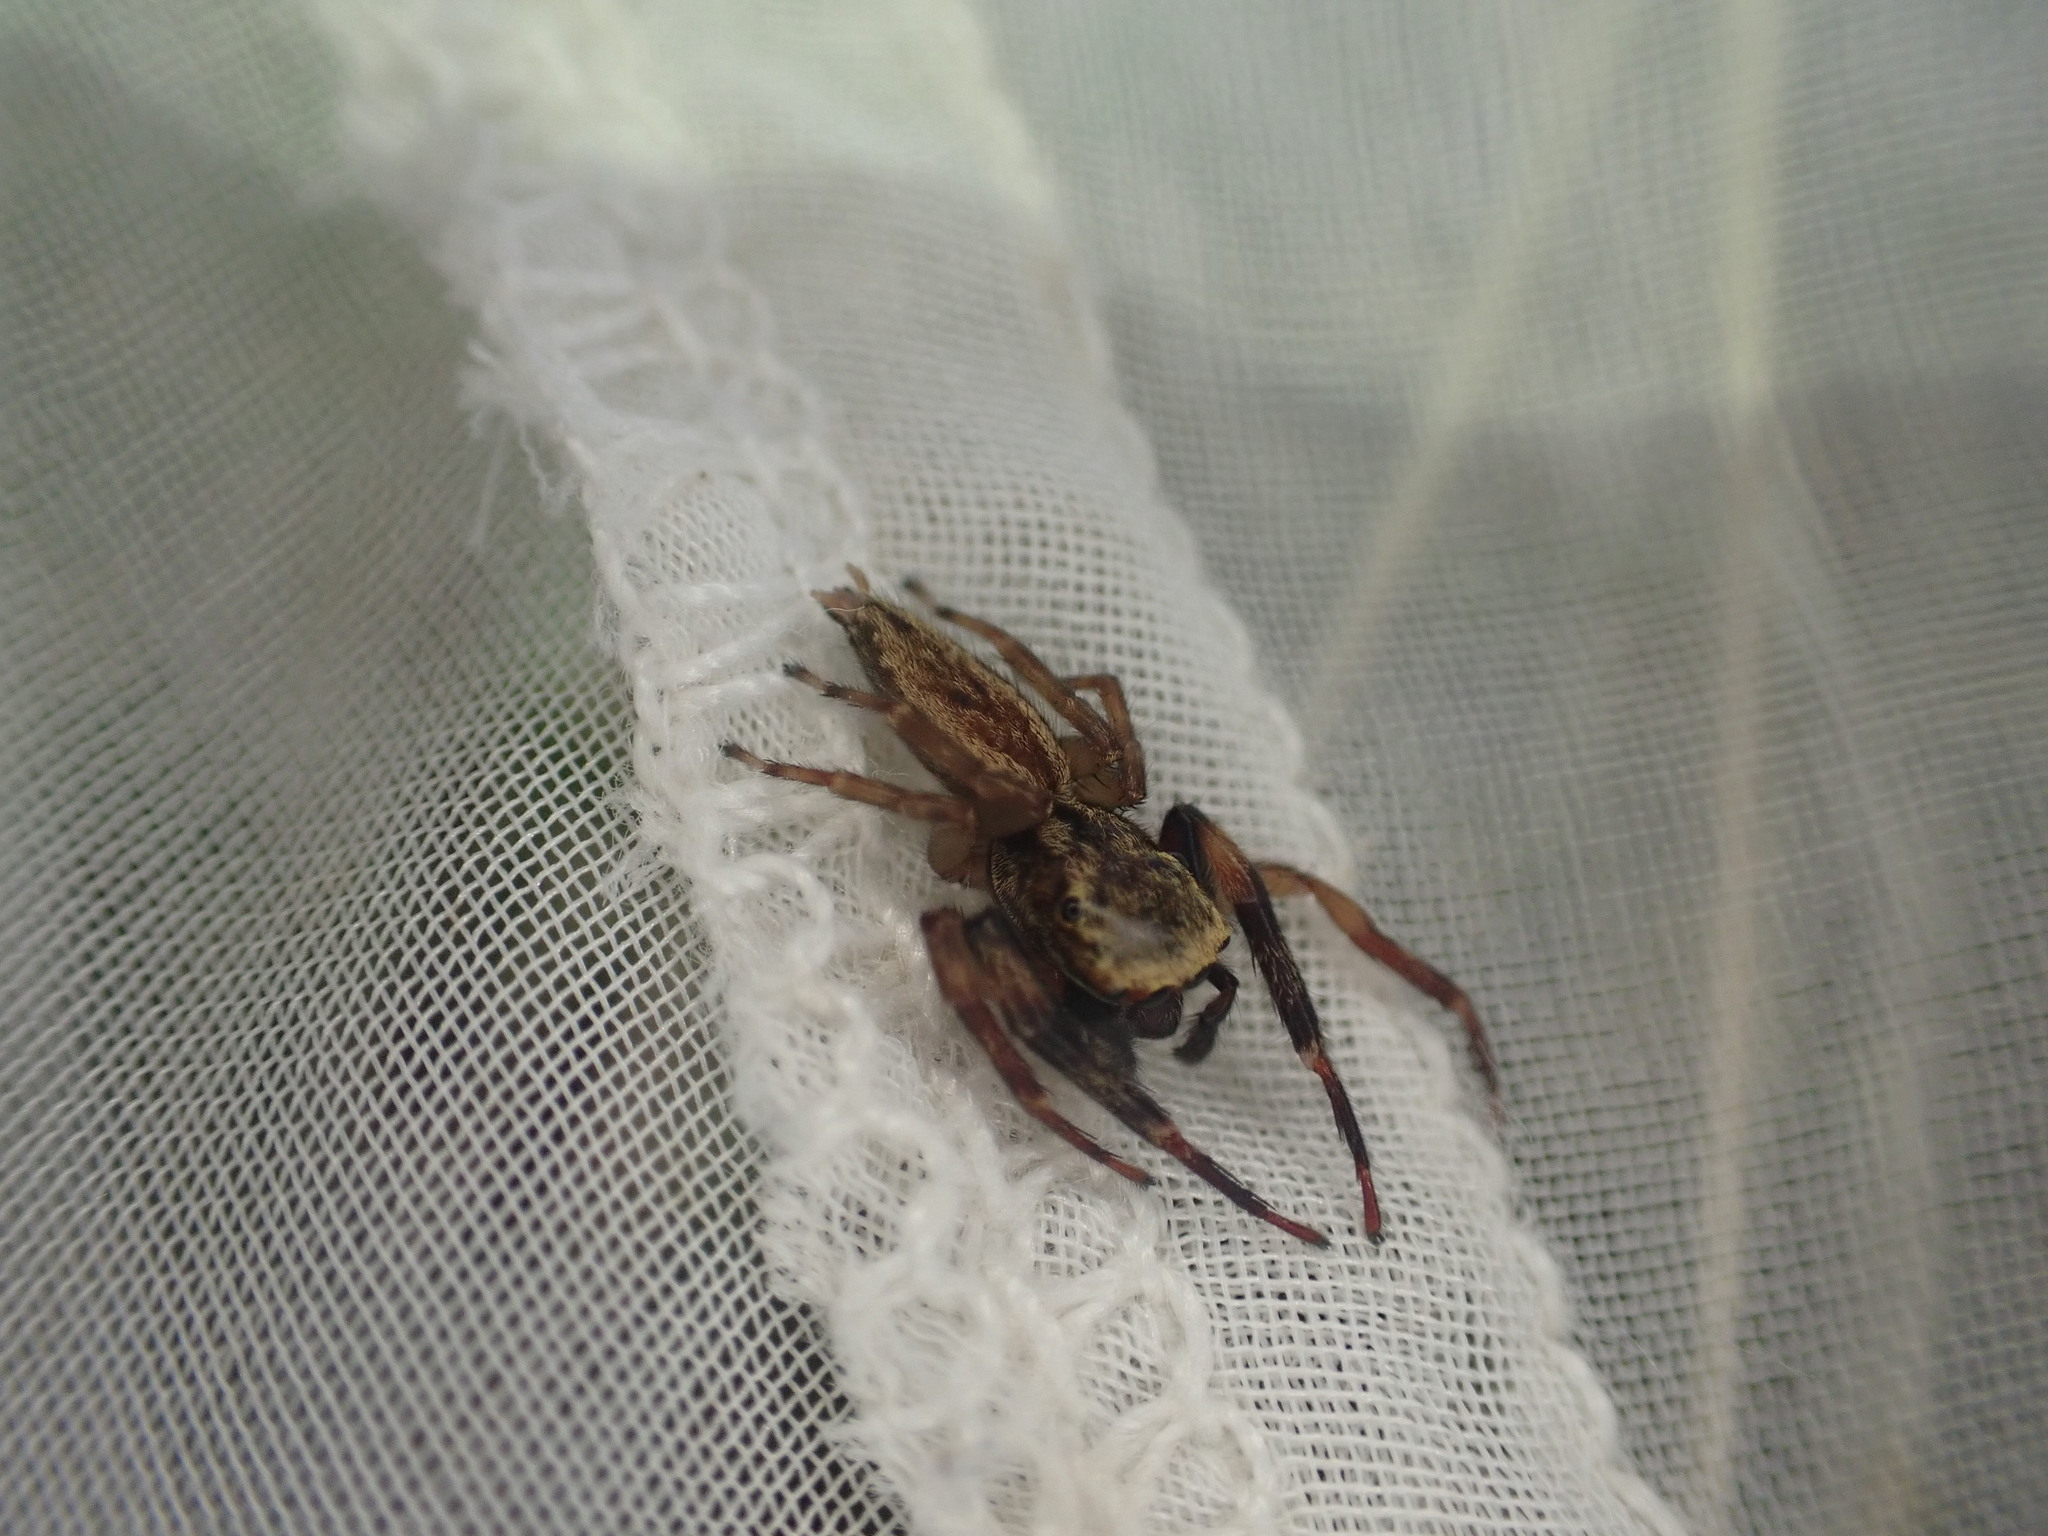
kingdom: Animalia
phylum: Arthropoda
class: Arachnida
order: Araneae
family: Salticidae
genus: Trite
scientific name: Trite auricoma
